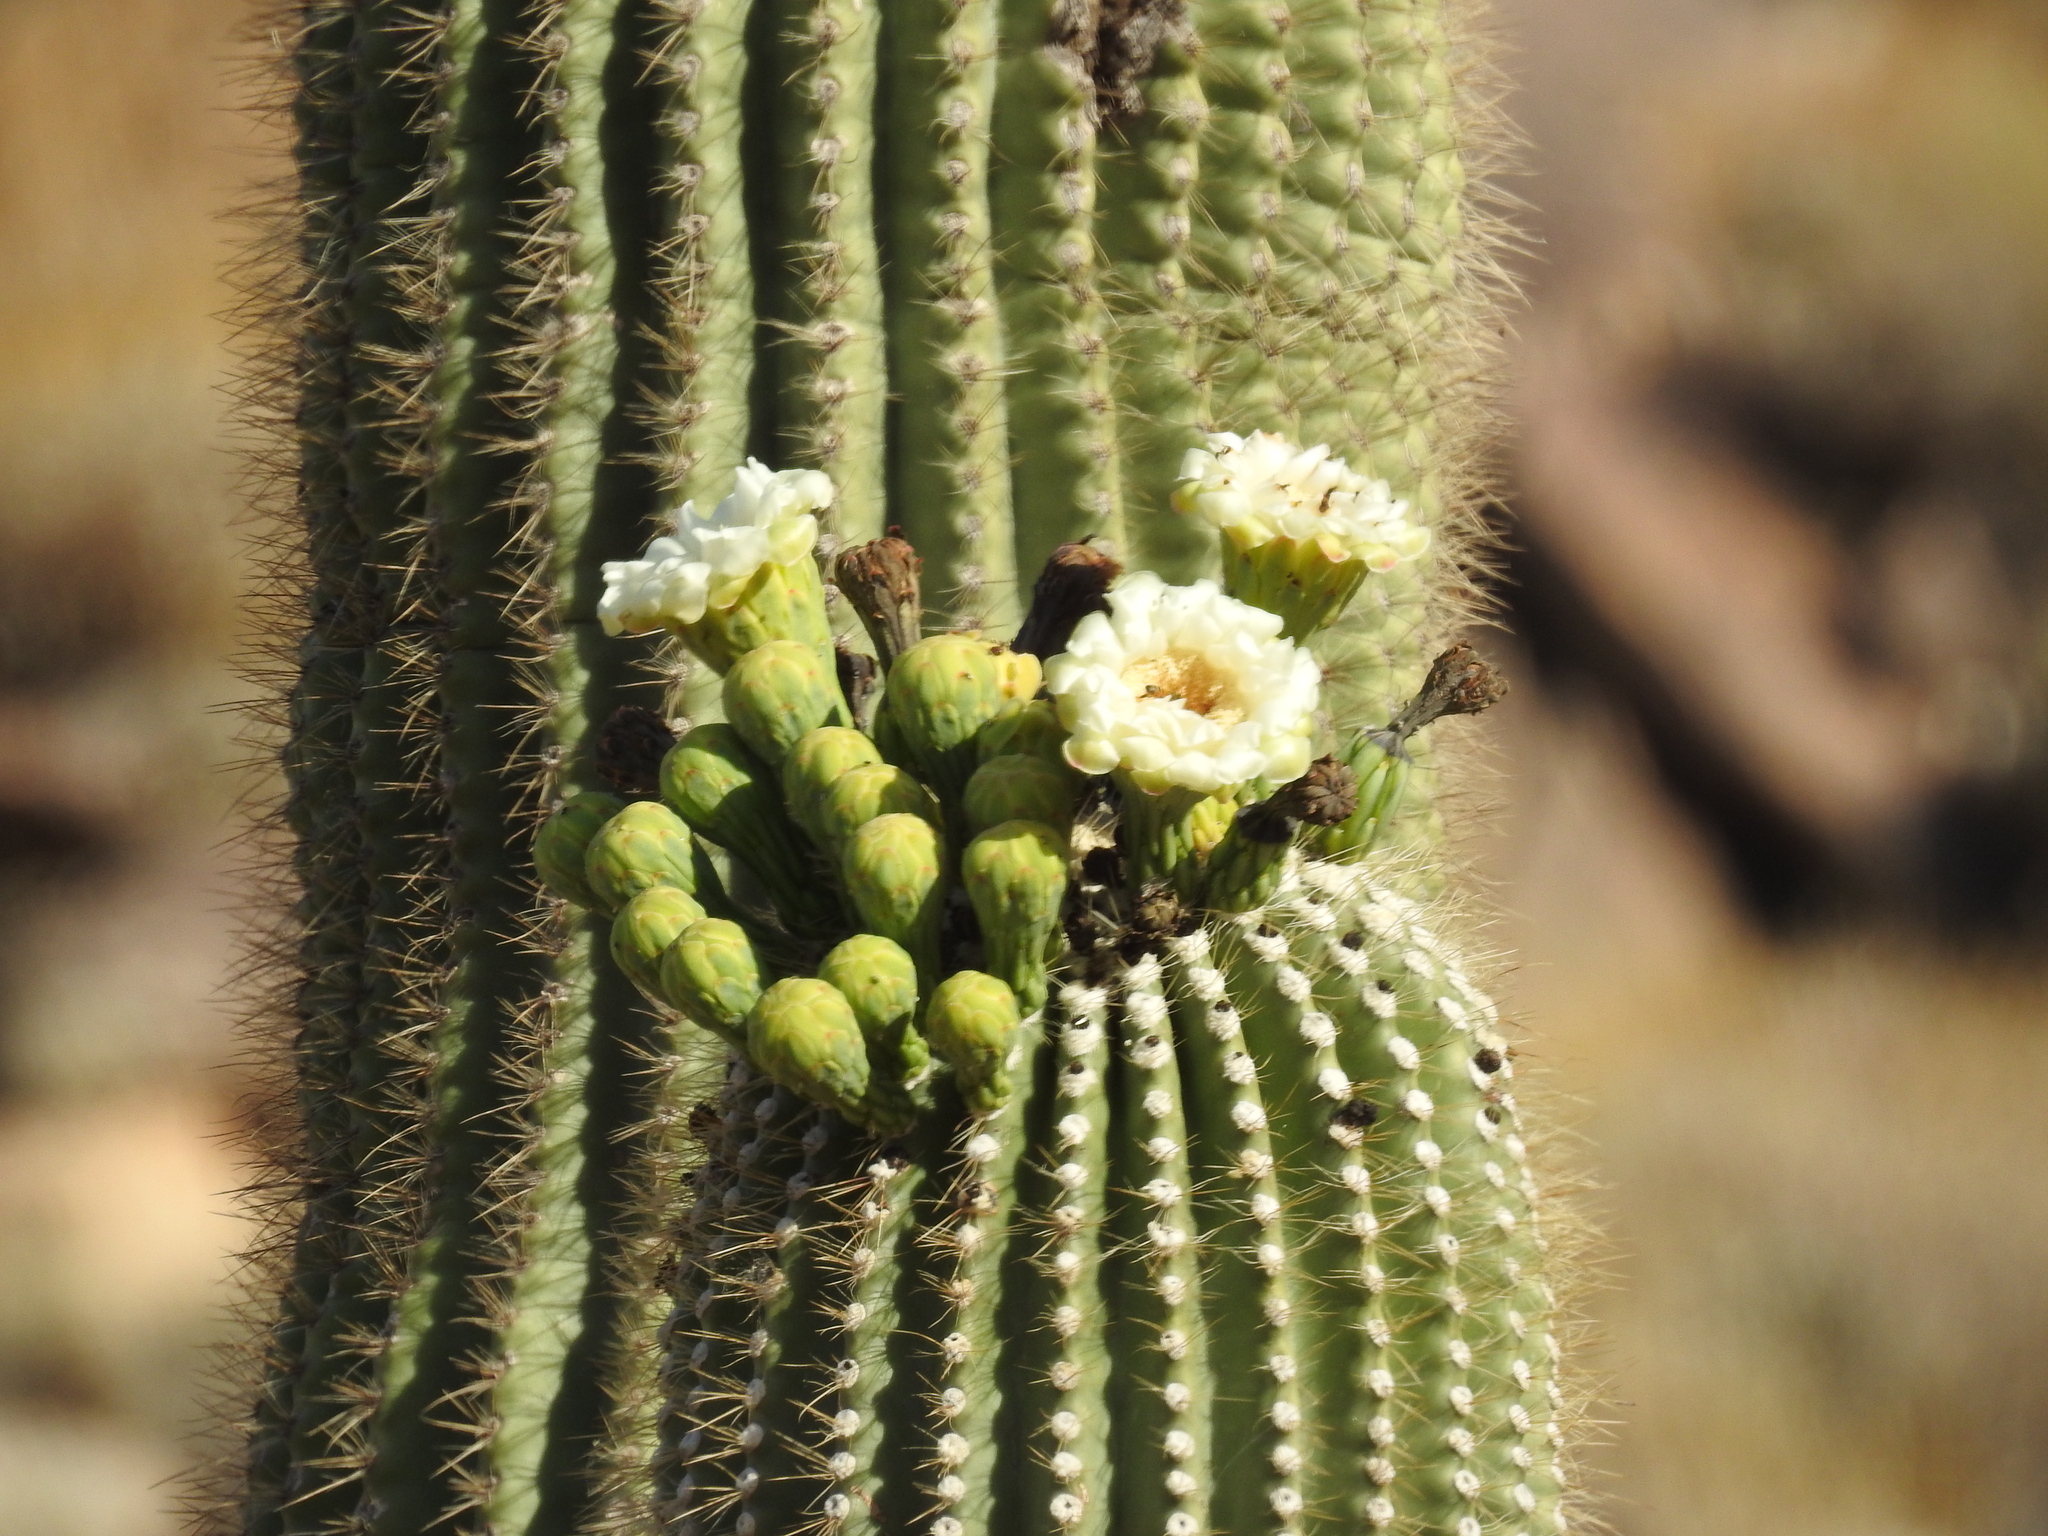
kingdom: Plantae
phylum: Tracheophyta
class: Magnoliopsida
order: Caryophyllales
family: Cactaceae
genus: Carnegiea
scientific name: Carnegiea gigantea
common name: Saguaro
